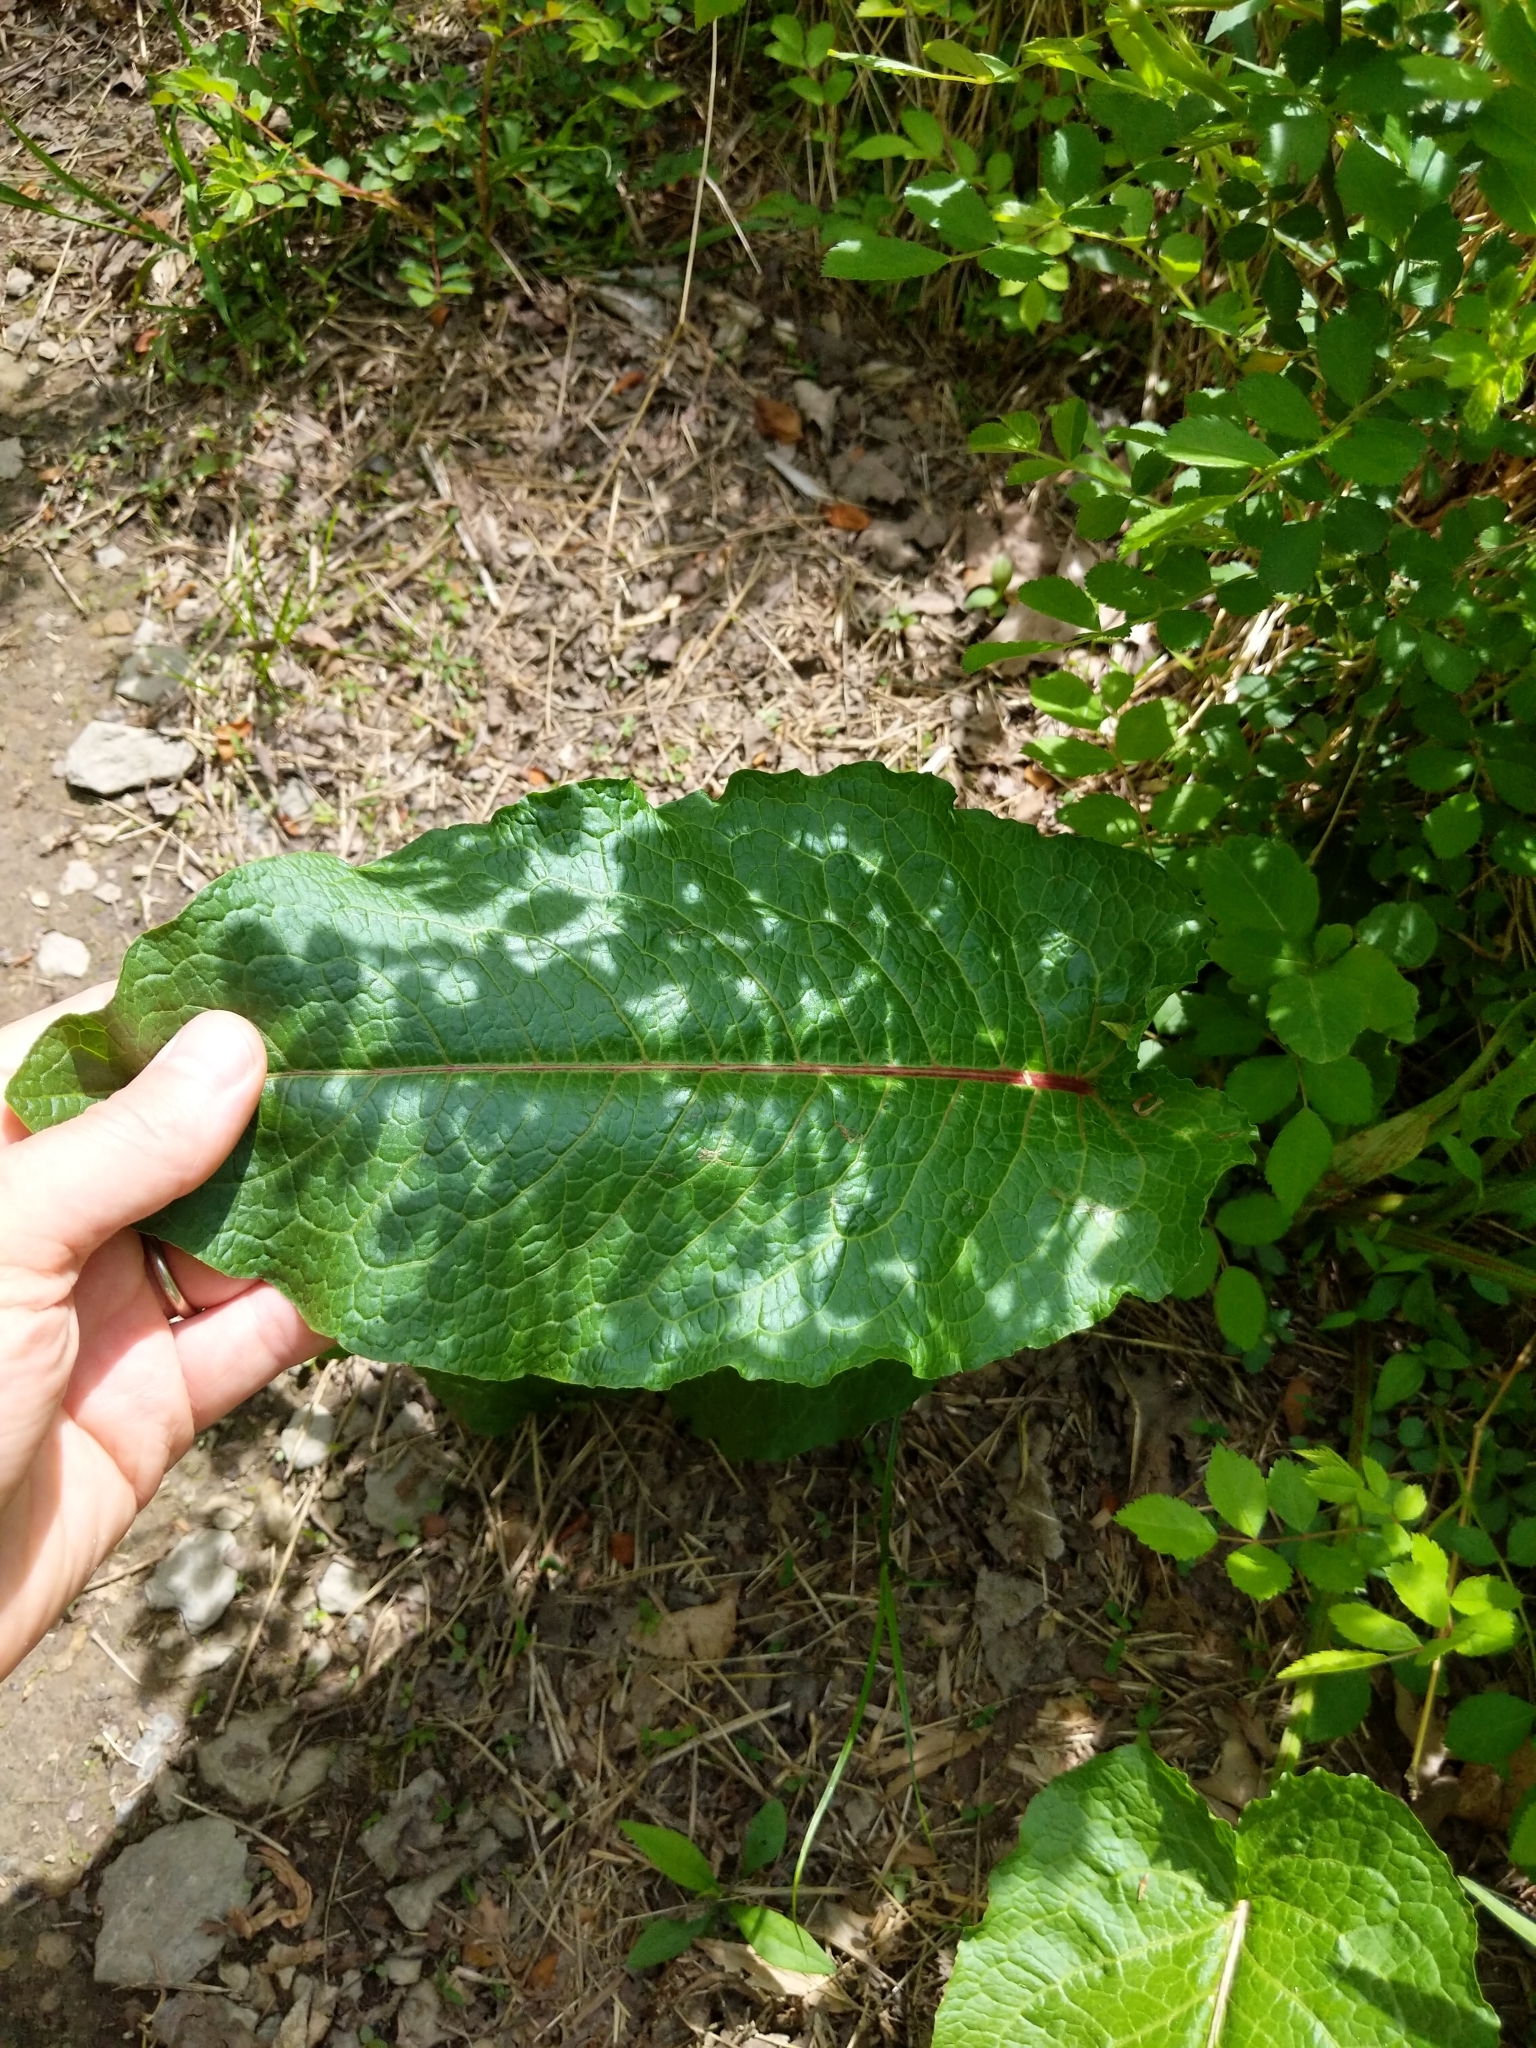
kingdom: Plantae
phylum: Tracheophyta
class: Magnoliopsida
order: Caryophyllales
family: Polygonaceae
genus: Rumex
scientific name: Rumex obtusifolius
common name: Bitter dock
